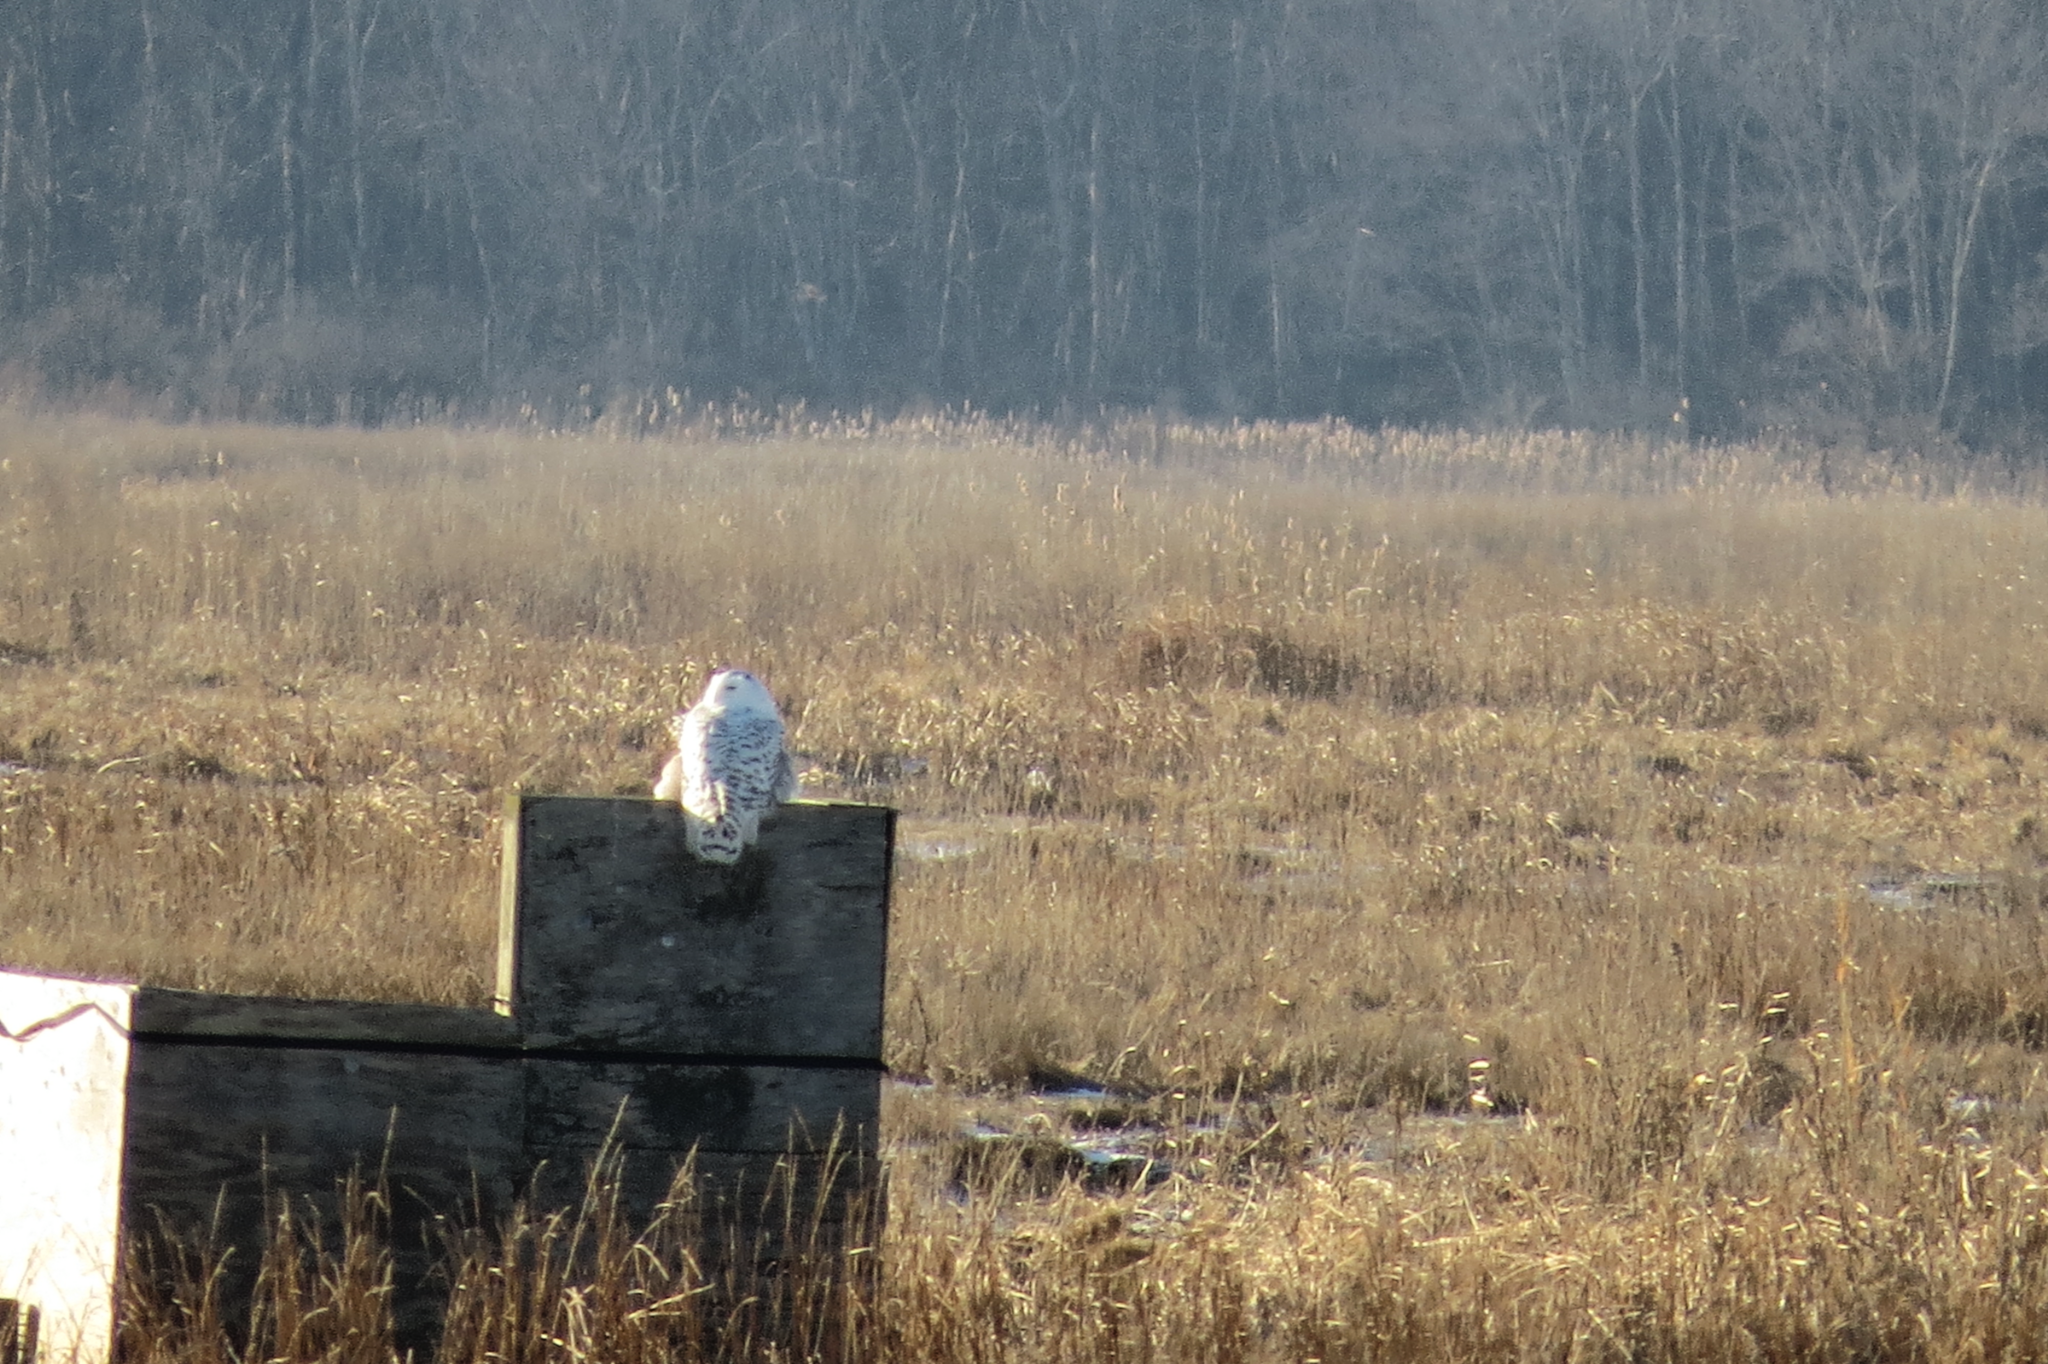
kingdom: Animalia
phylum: Chordata
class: Aves
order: Strigiformes
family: Strigidae
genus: Bubo
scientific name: Bubo scandiacus
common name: Snowy owl
